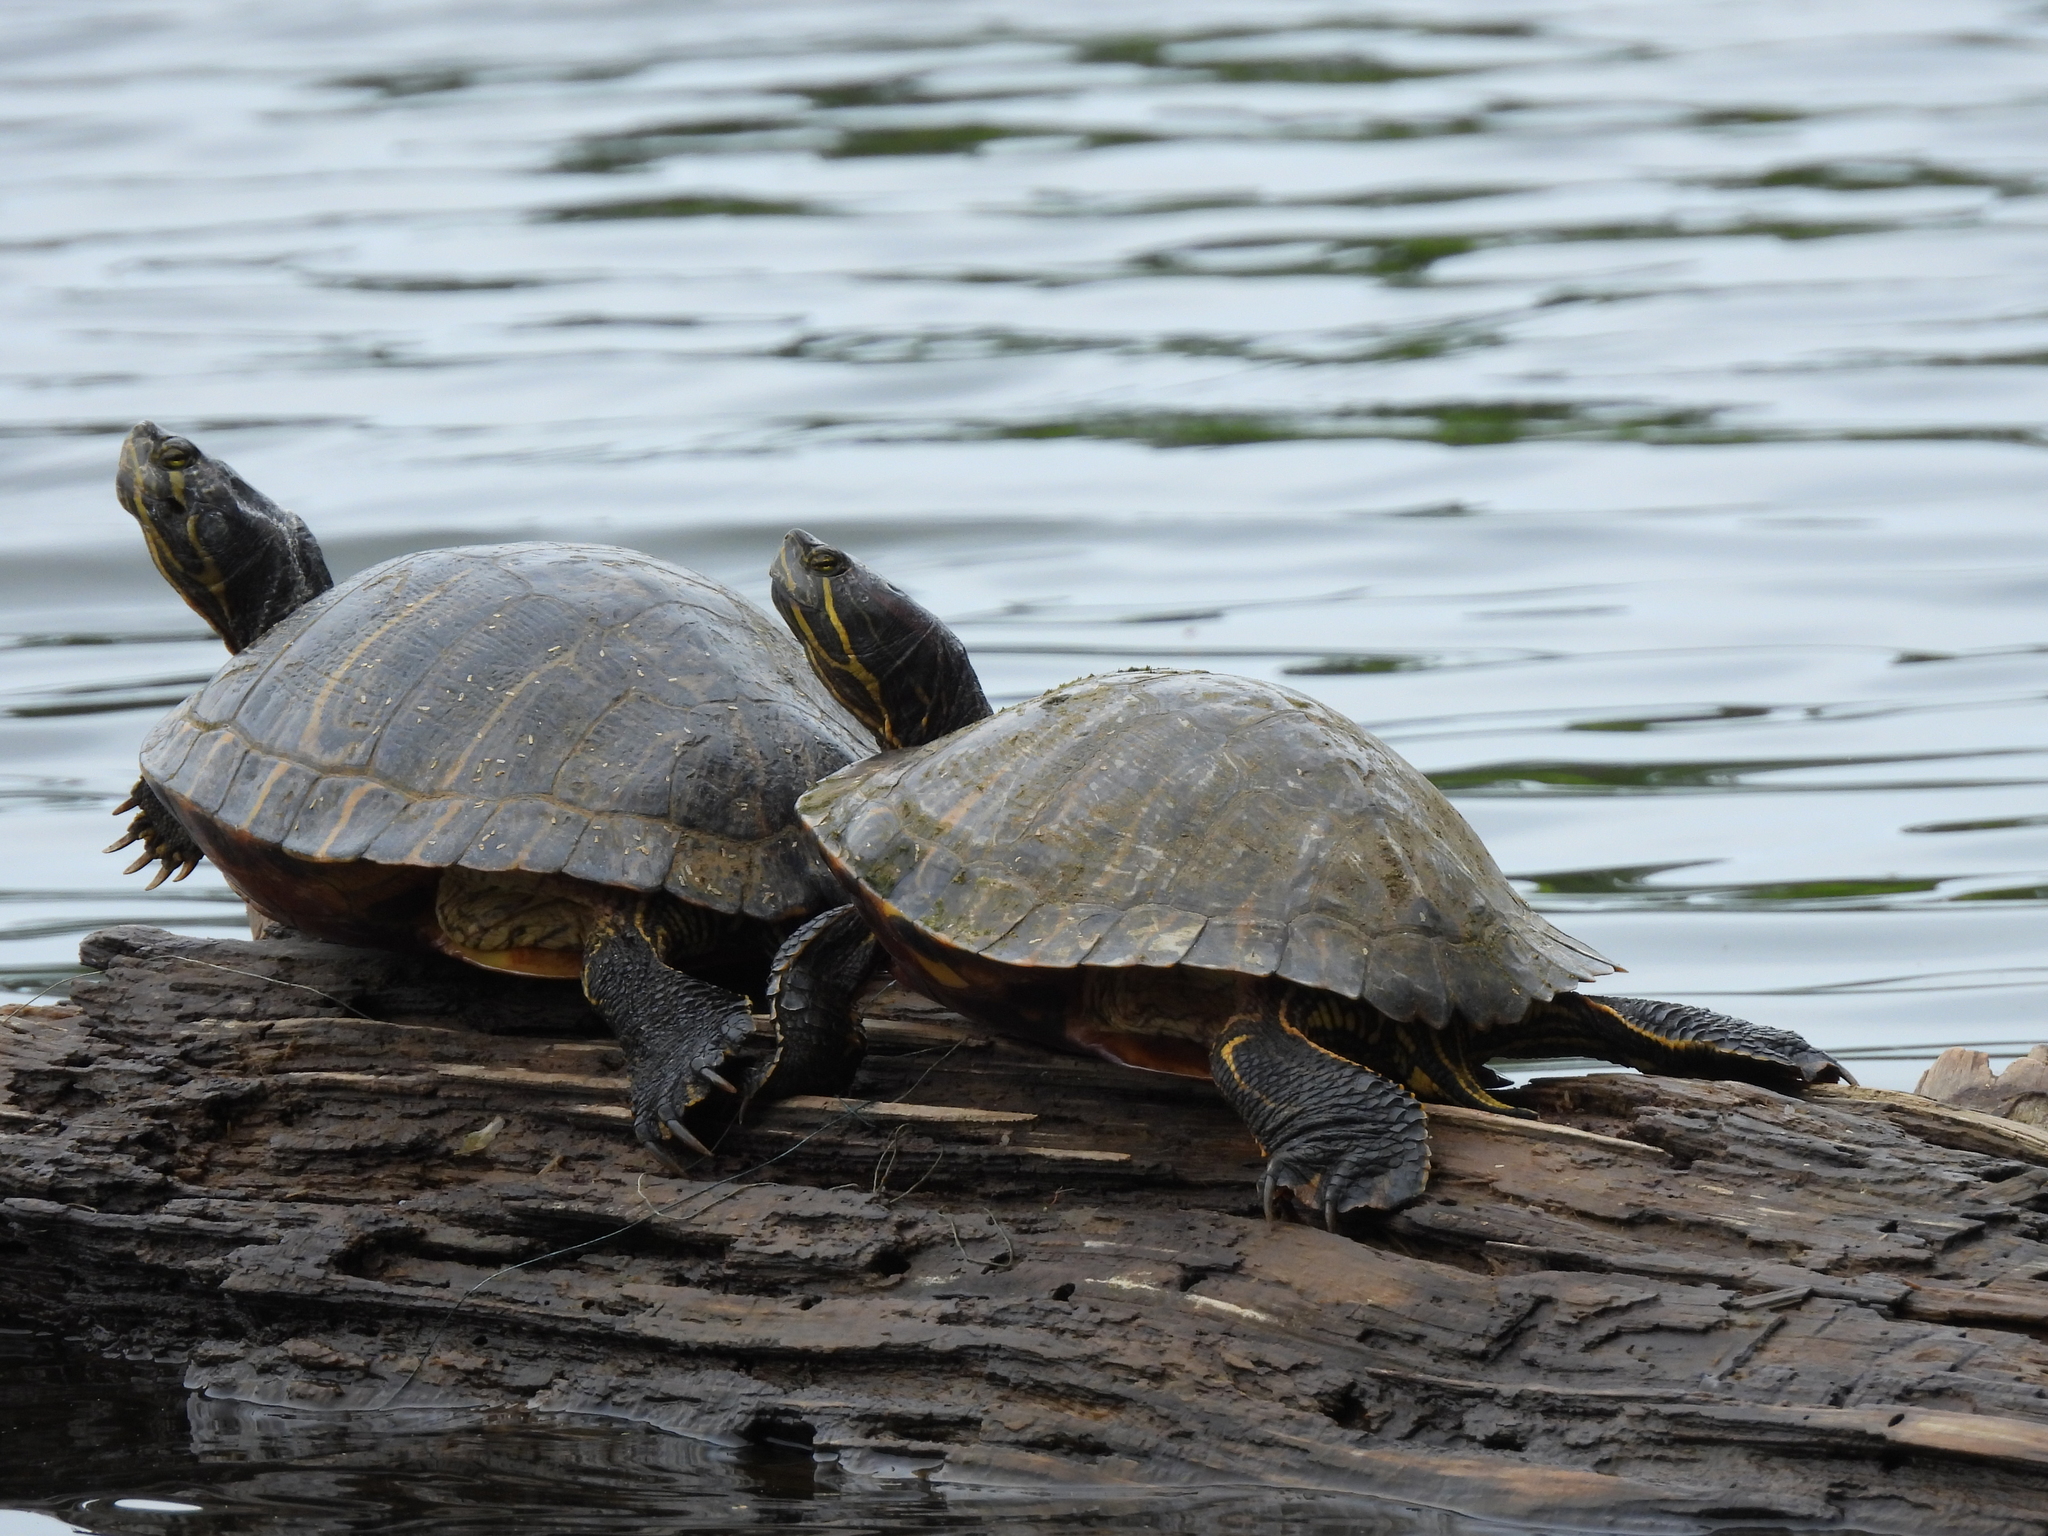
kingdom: Animalia
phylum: Chordata
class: Testudines
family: Emydidae
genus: Trachemys
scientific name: Trachemys scripta
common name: Slider
